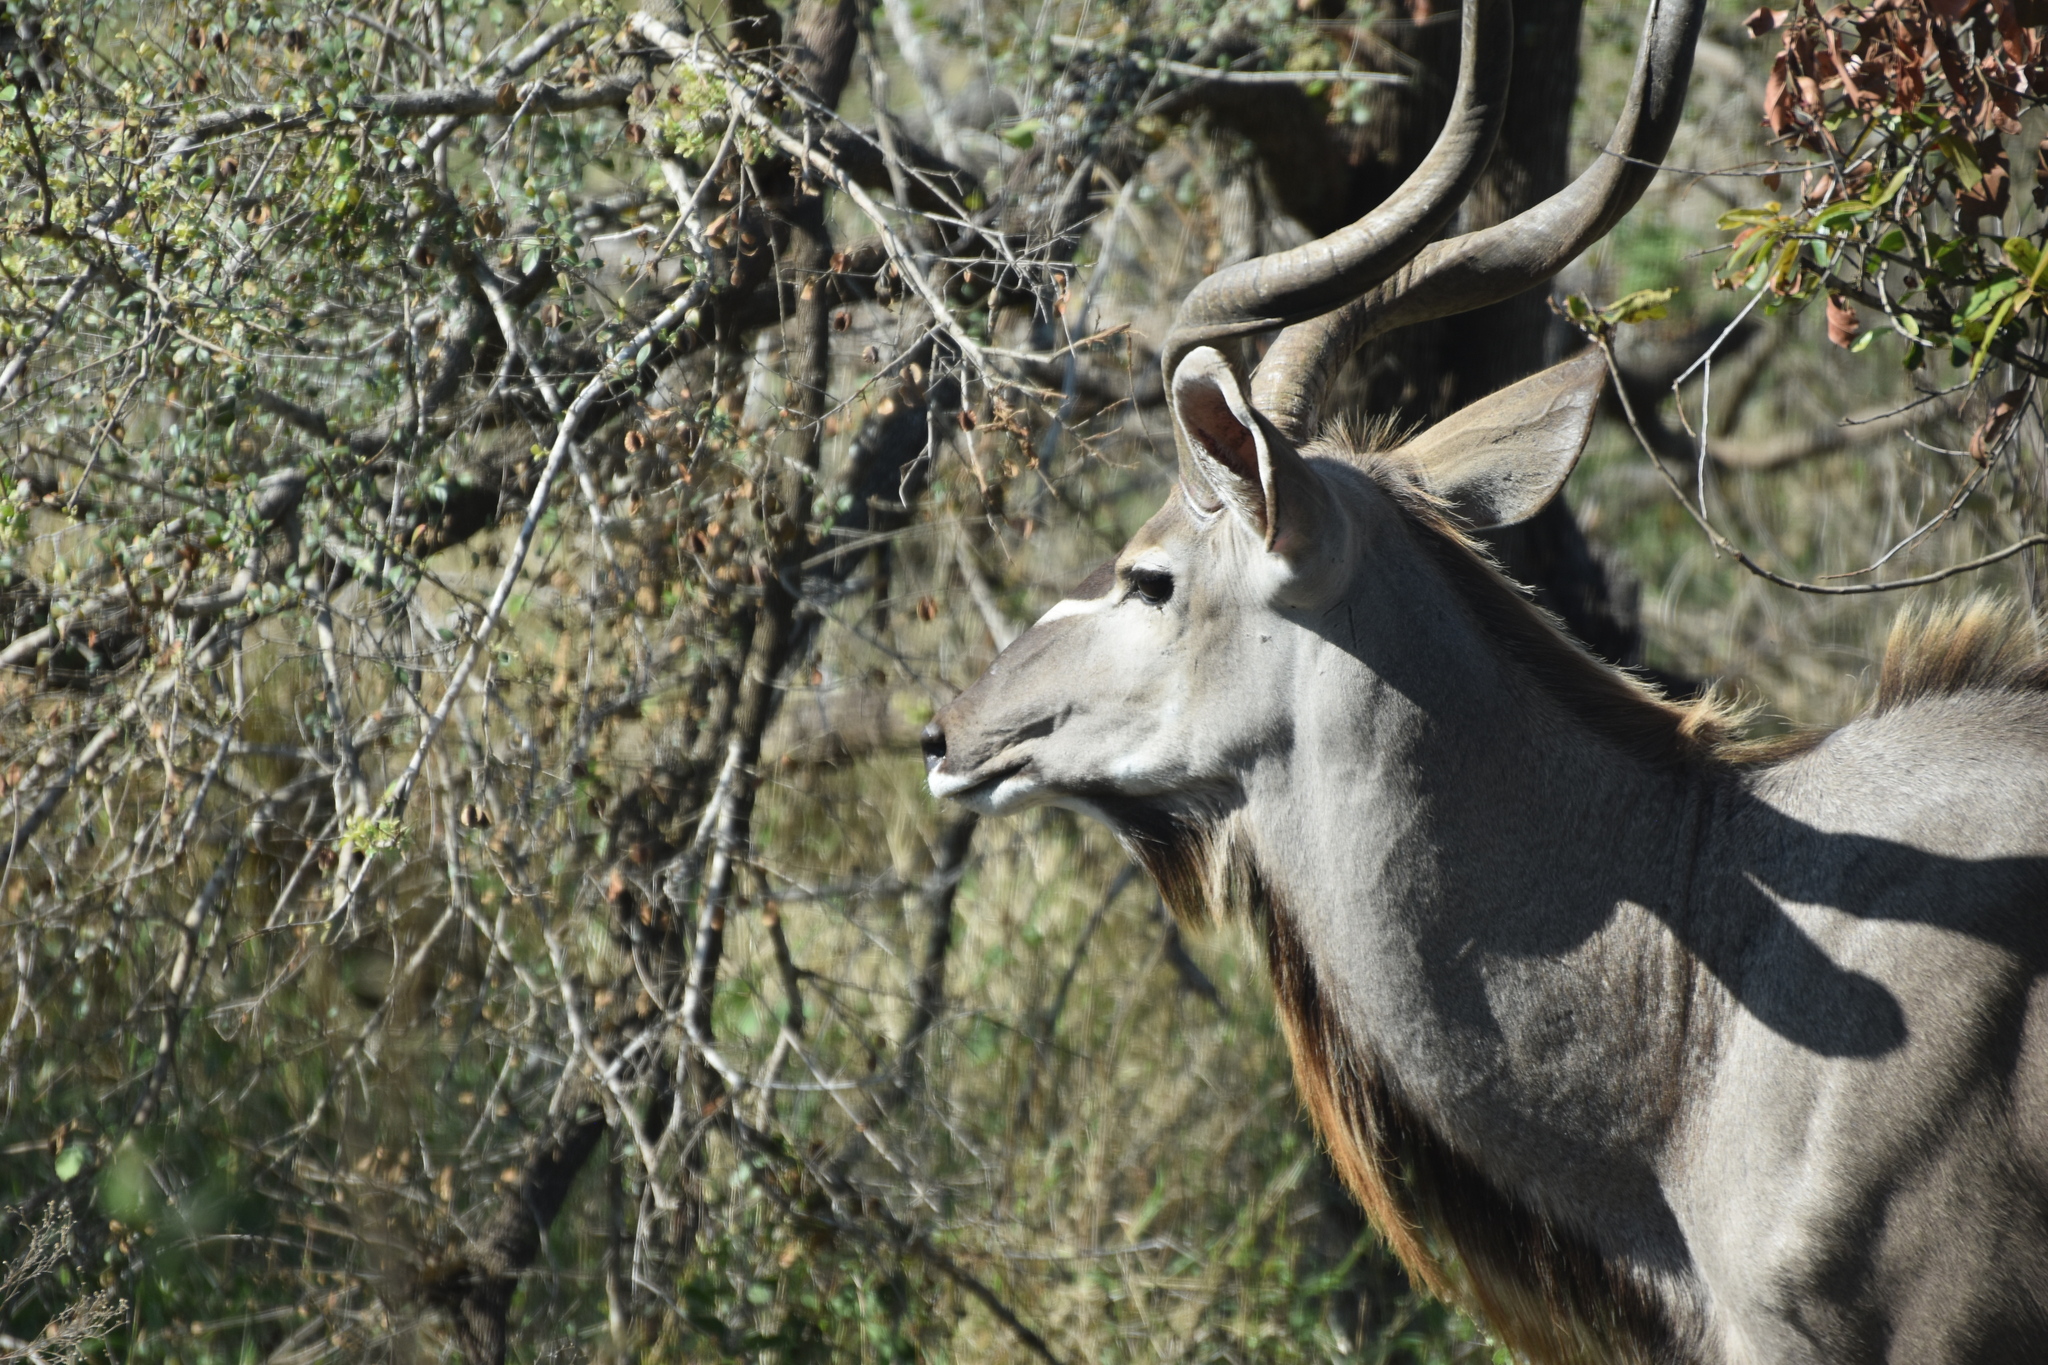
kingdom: Animalia
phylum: Chordata
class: Mammalia
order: Artiodactyla
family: Bovidae
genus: Tragelaphus
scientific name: Tragelaphus strepsiceros
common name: Greater kudu
